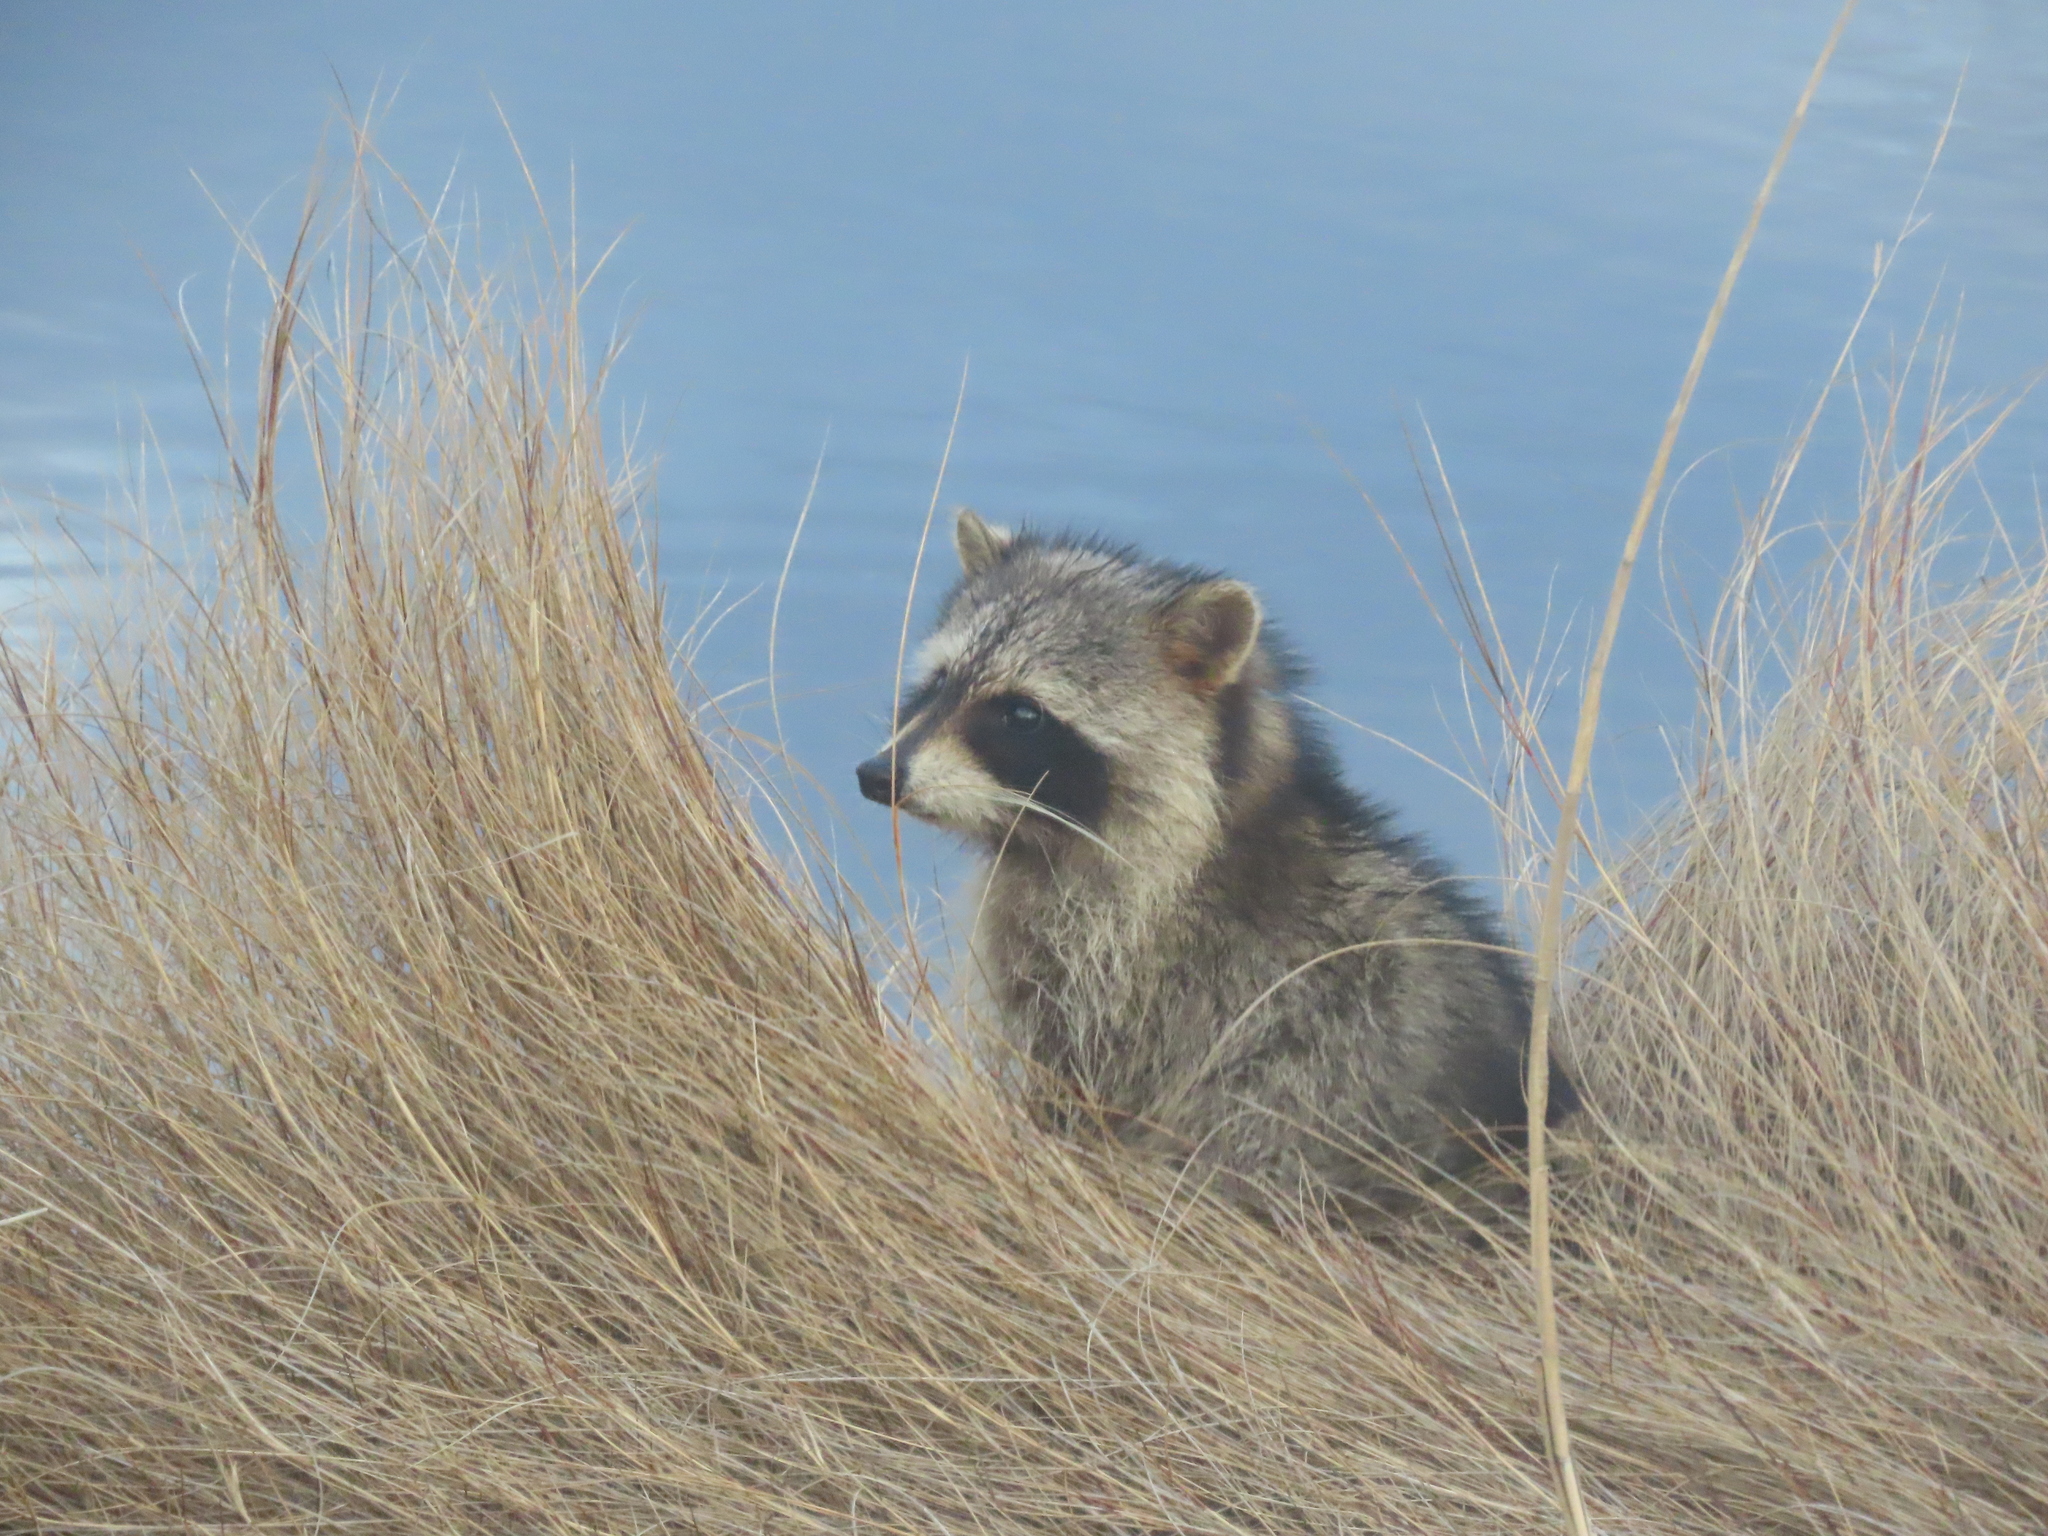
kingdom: Animalia
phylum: Chordata
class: Mammalia
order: Carnivora
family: Procyonidae
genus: Procyon
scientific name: Procyon lotor
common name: Raccoon
